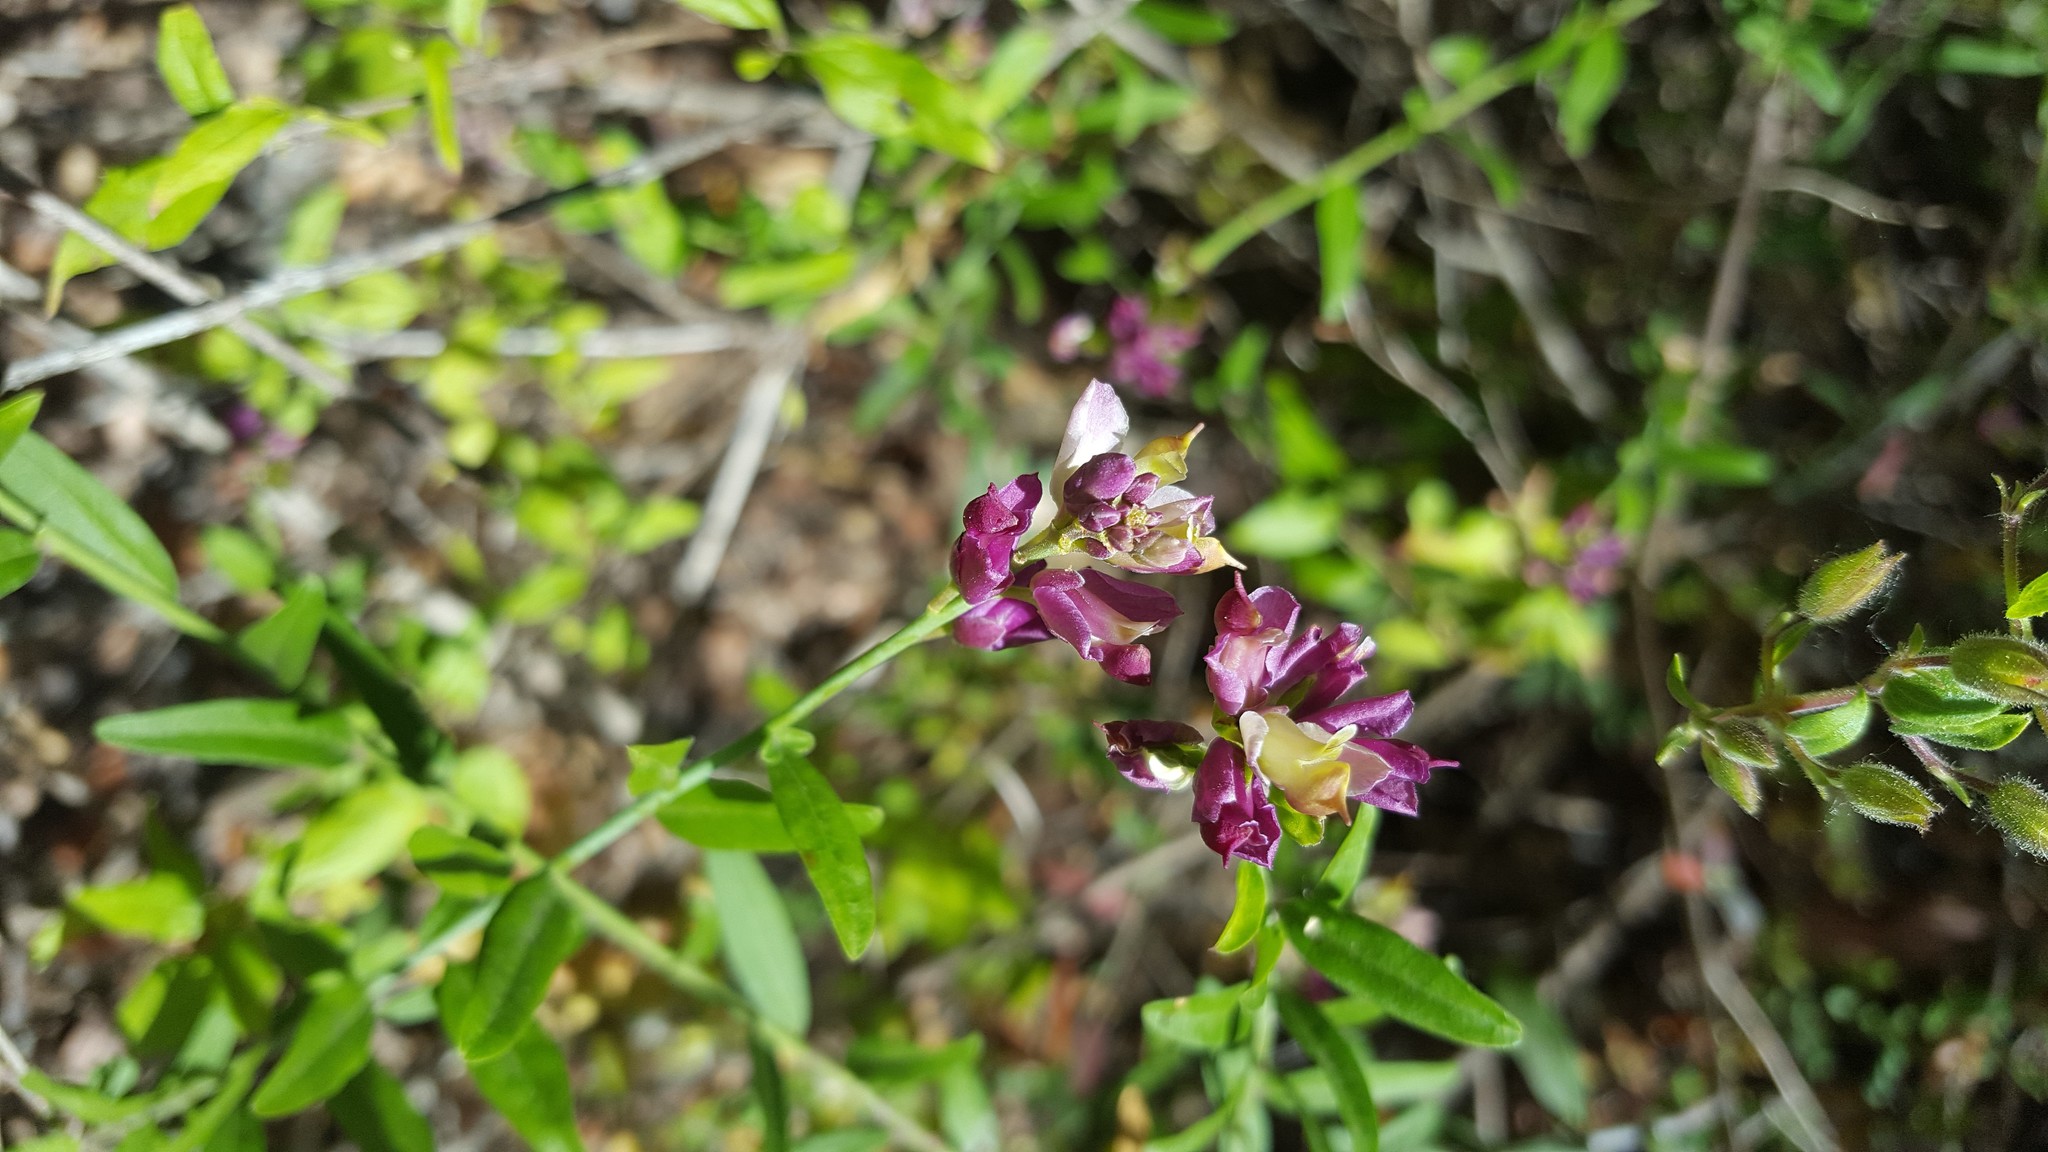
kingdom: Plantae
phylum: Tracheophyta
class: Magnoliopsida
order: Fabales
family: Polygalaceae
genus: Rhinotropis
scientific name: Rhinotropis cornuta
